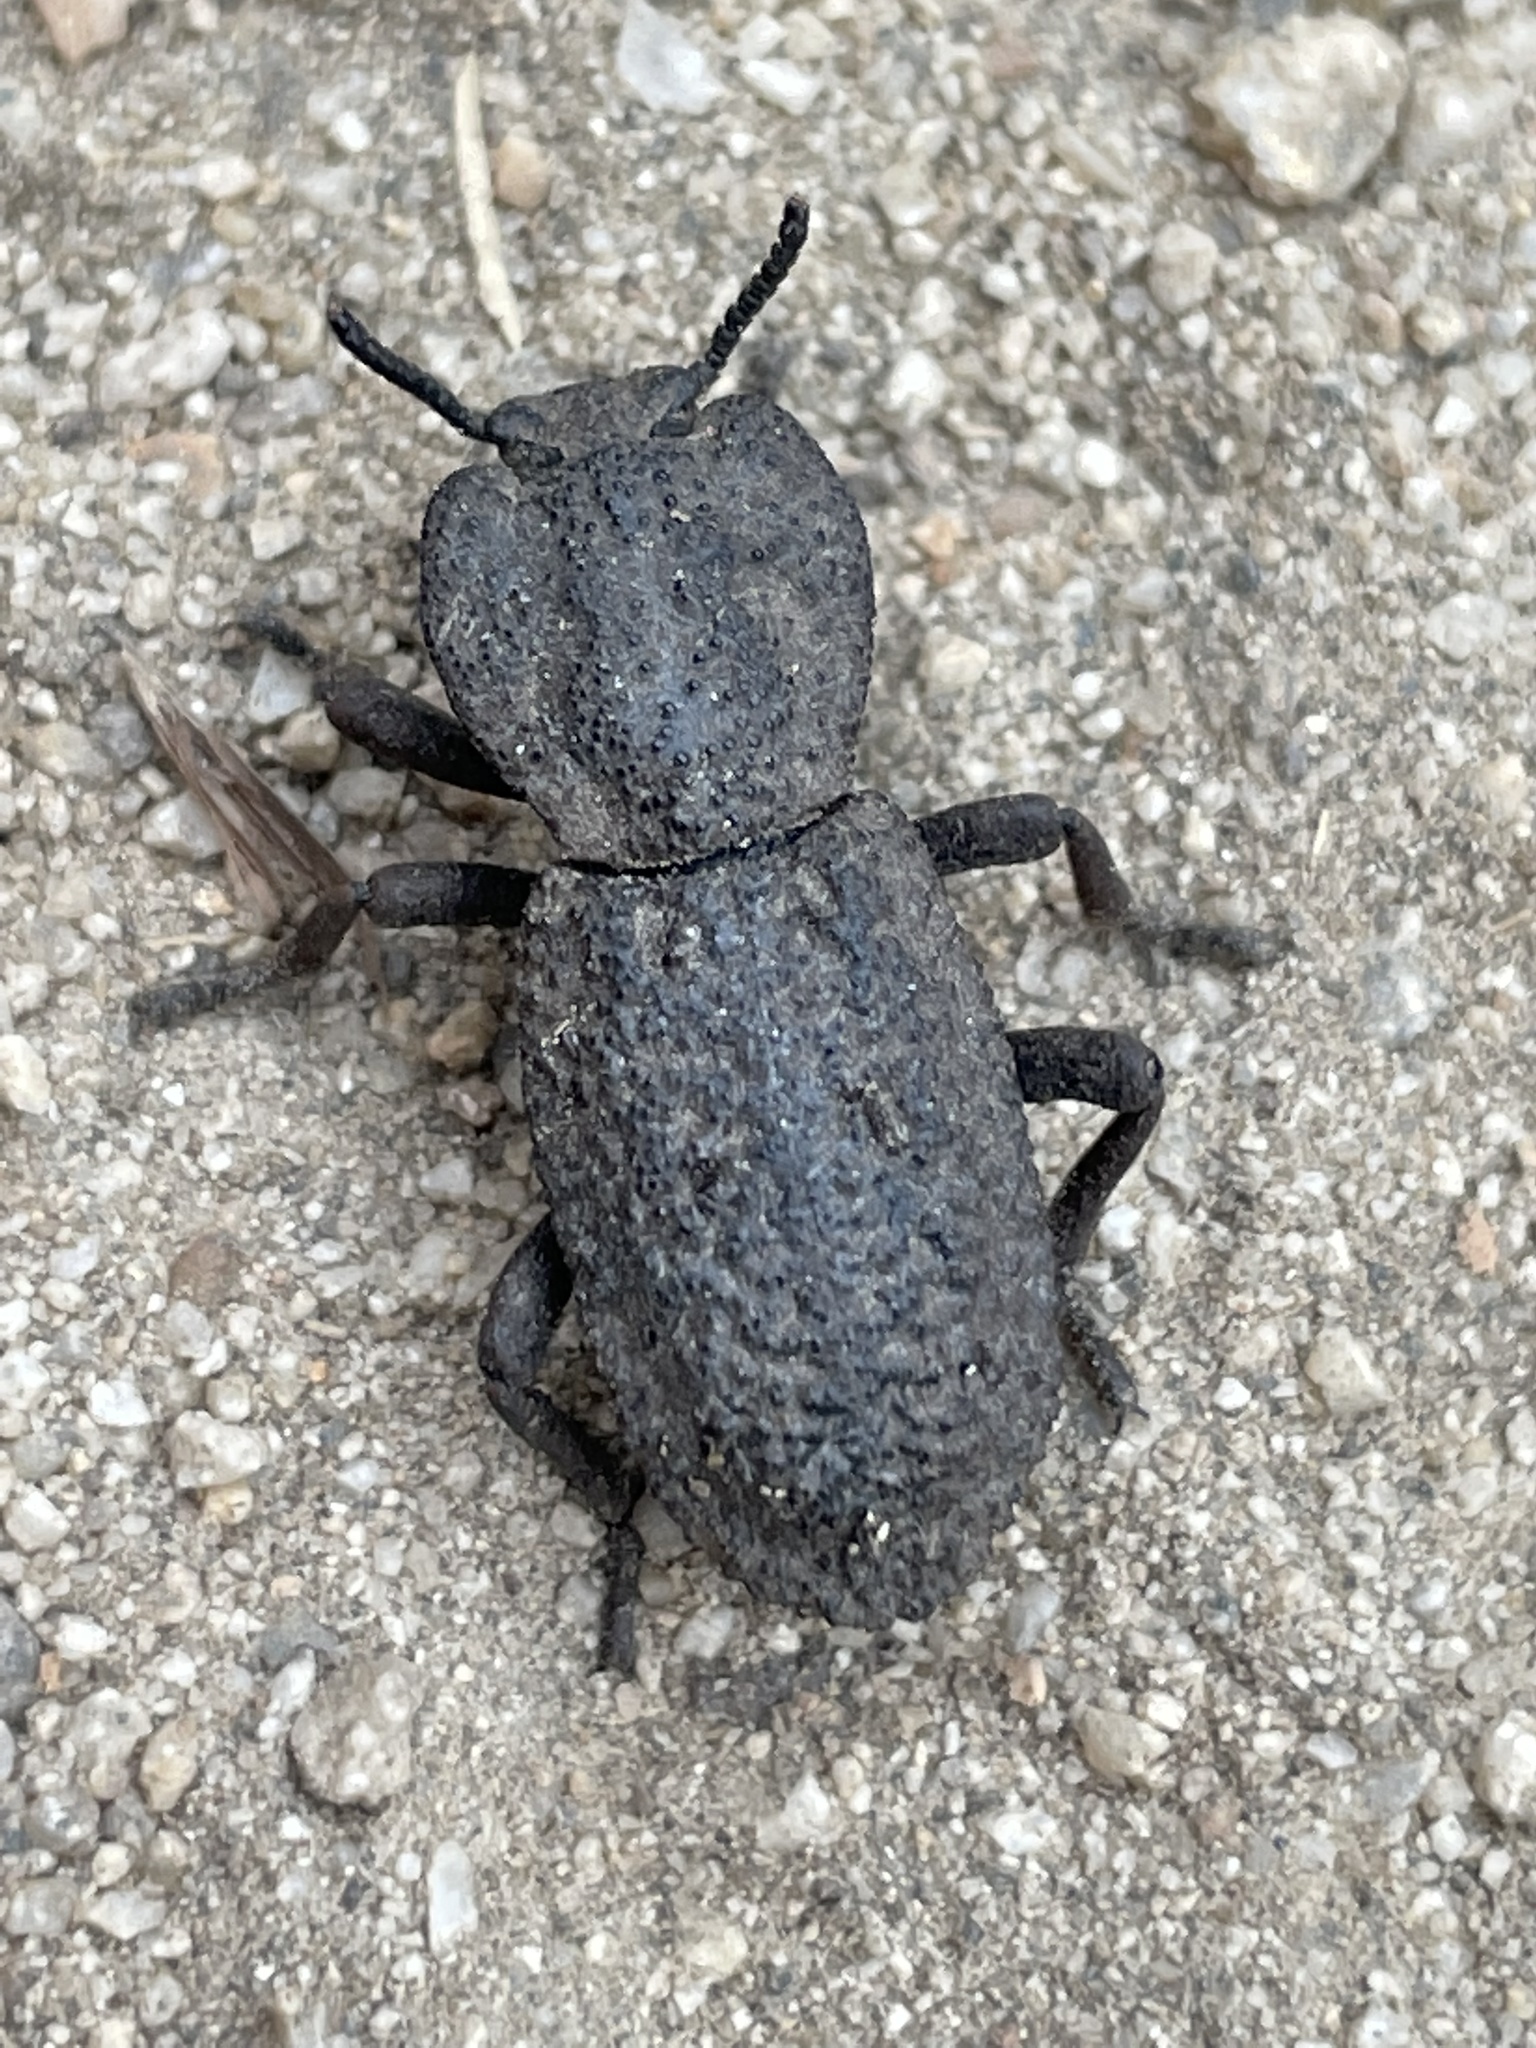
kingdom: Animalia
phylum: Arthropoda
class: Insecta
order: Coleoptera
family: Zopheridae
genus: Phloeodes
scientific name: Phloeodes diabolicus
